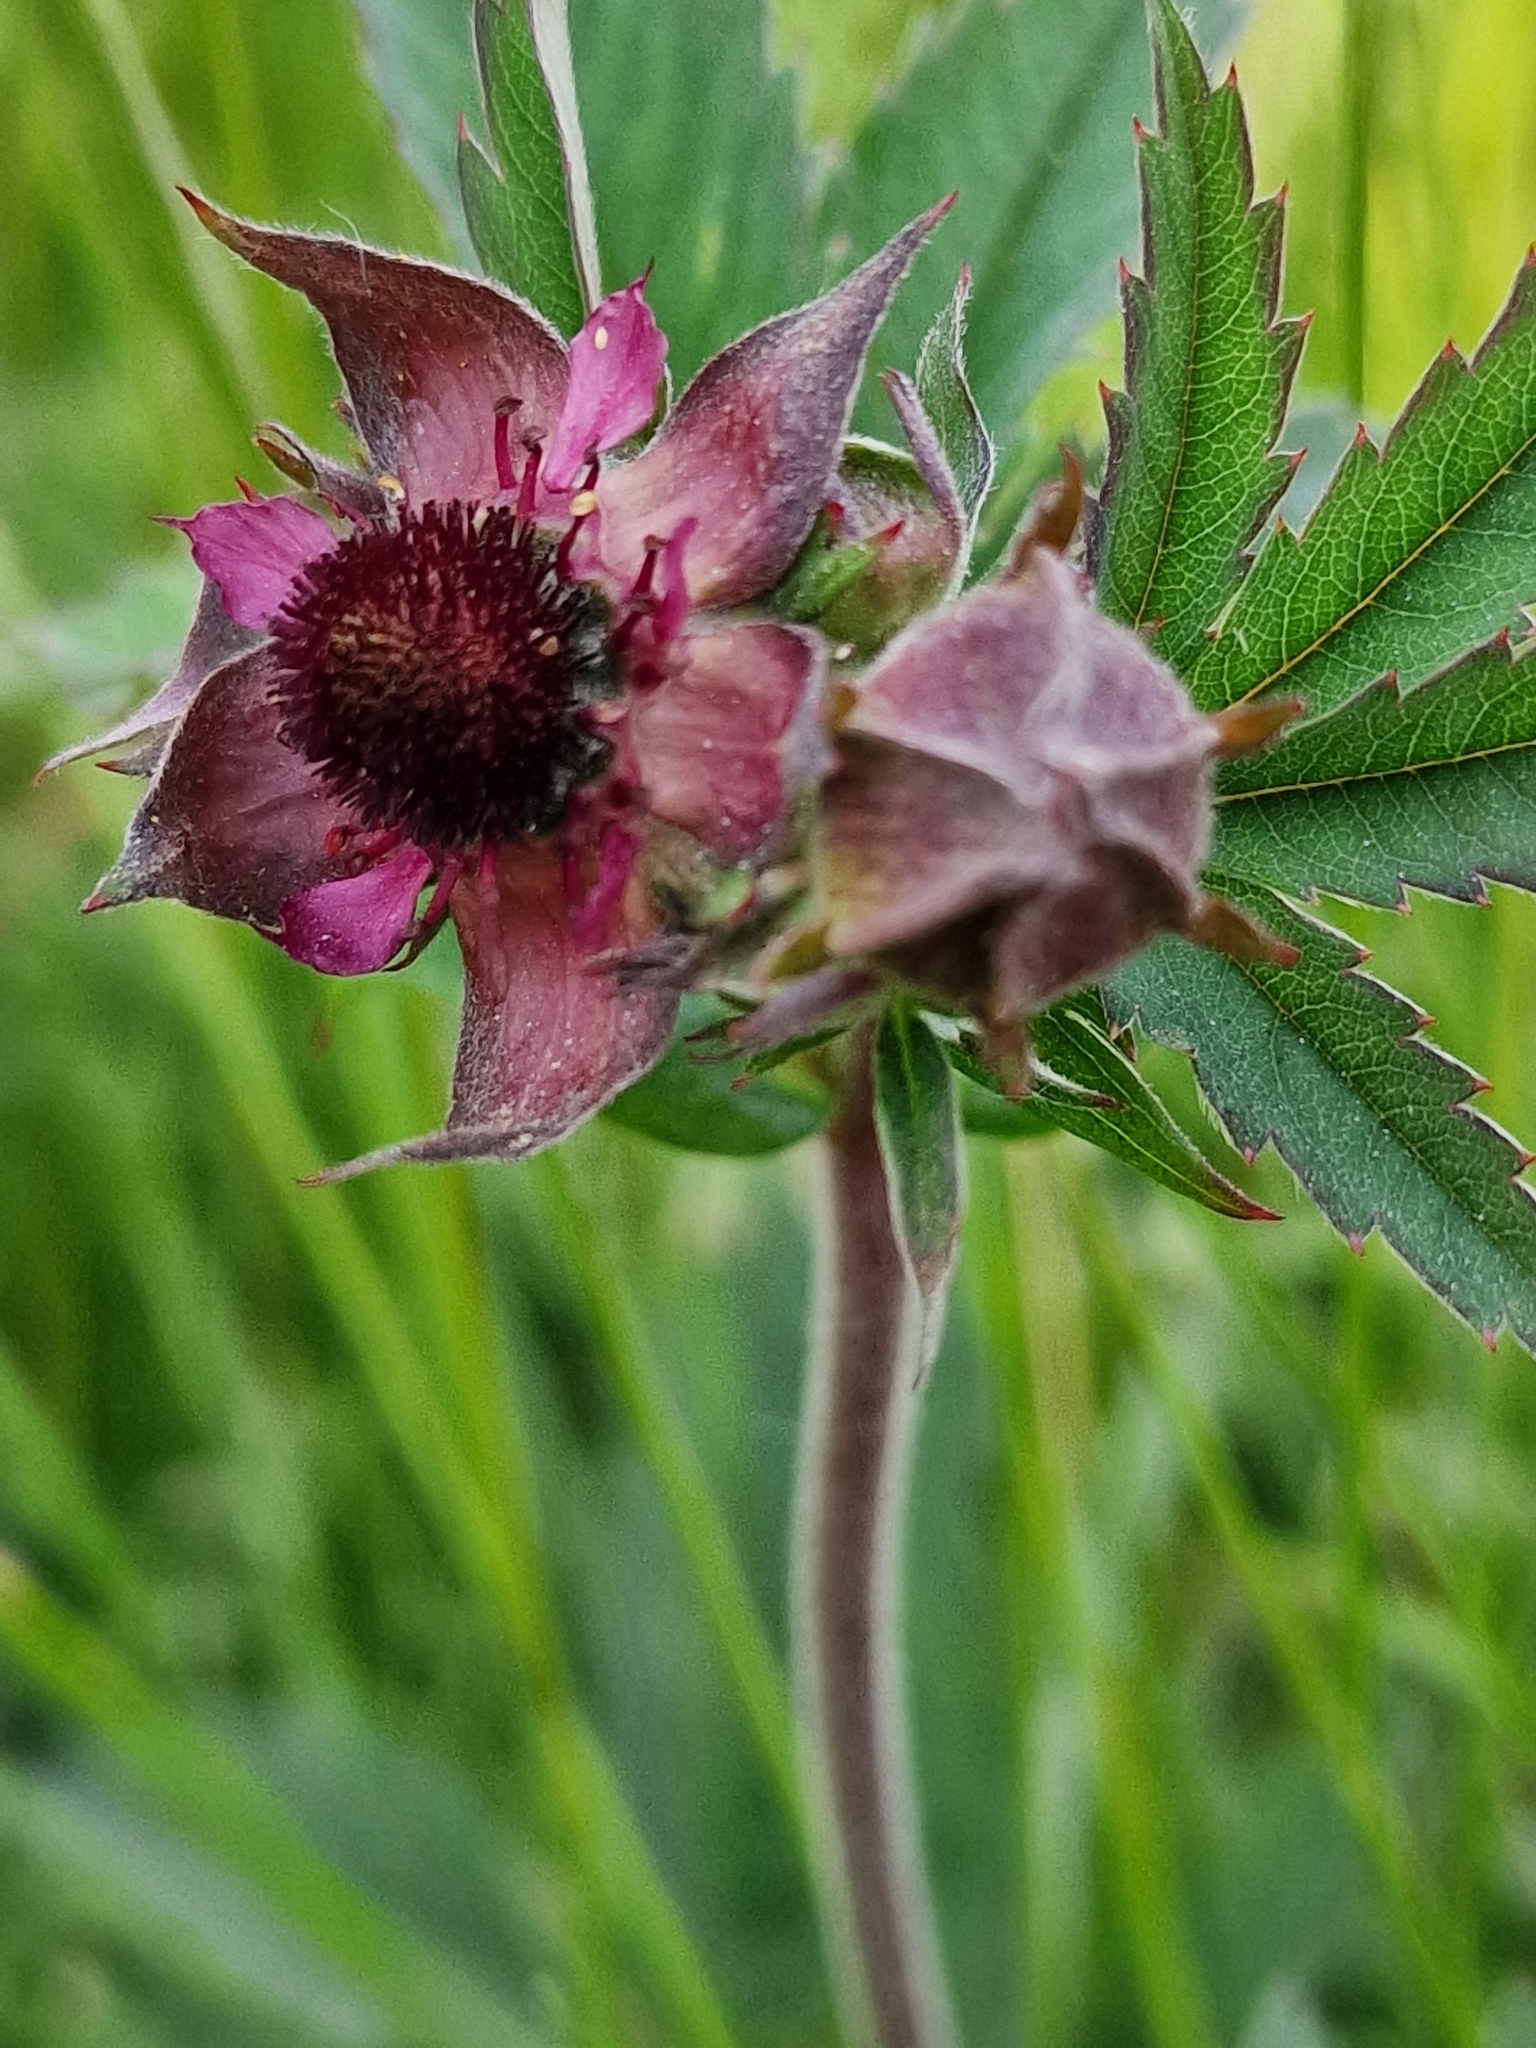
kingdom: Plantae
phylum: Tracheophyta
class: Magnoliopsida
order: Rosales
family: Rosaceae
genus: Comarum
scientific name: Comarum palustre
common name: Marsh cinquefoil
